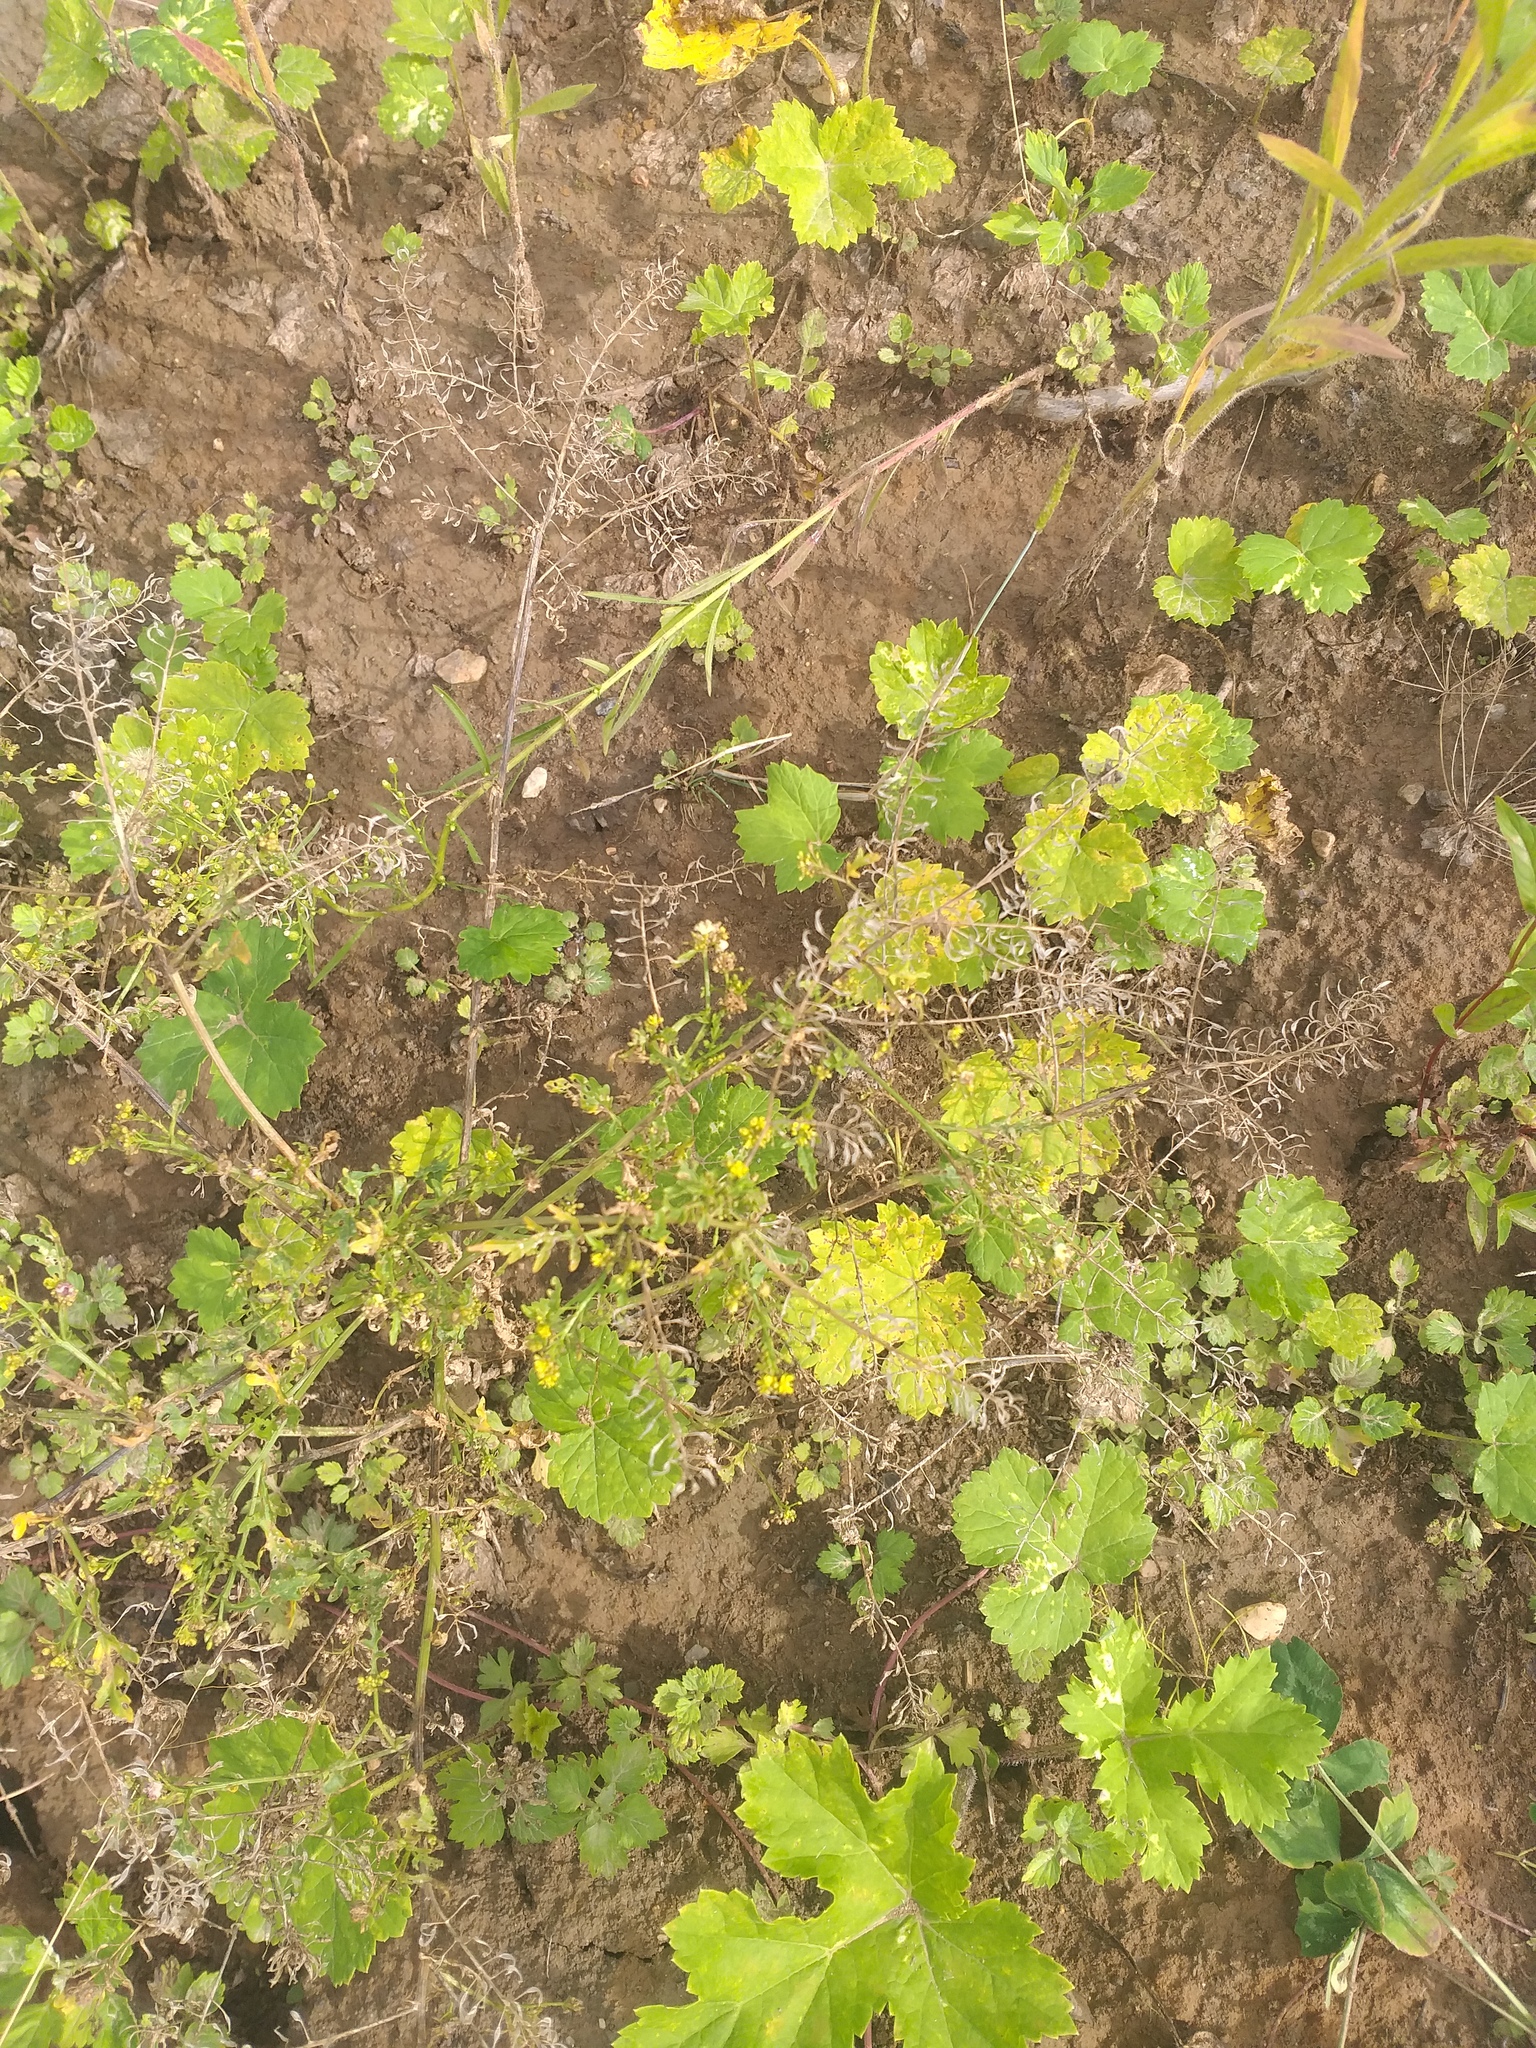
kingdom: Plantae
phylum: Tracheophyta
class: Magnoliopsida
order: Brassicales
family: Brassicaceae
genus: Rorippa
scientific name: Rorippa palustris
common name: Marsh yellow-cress
